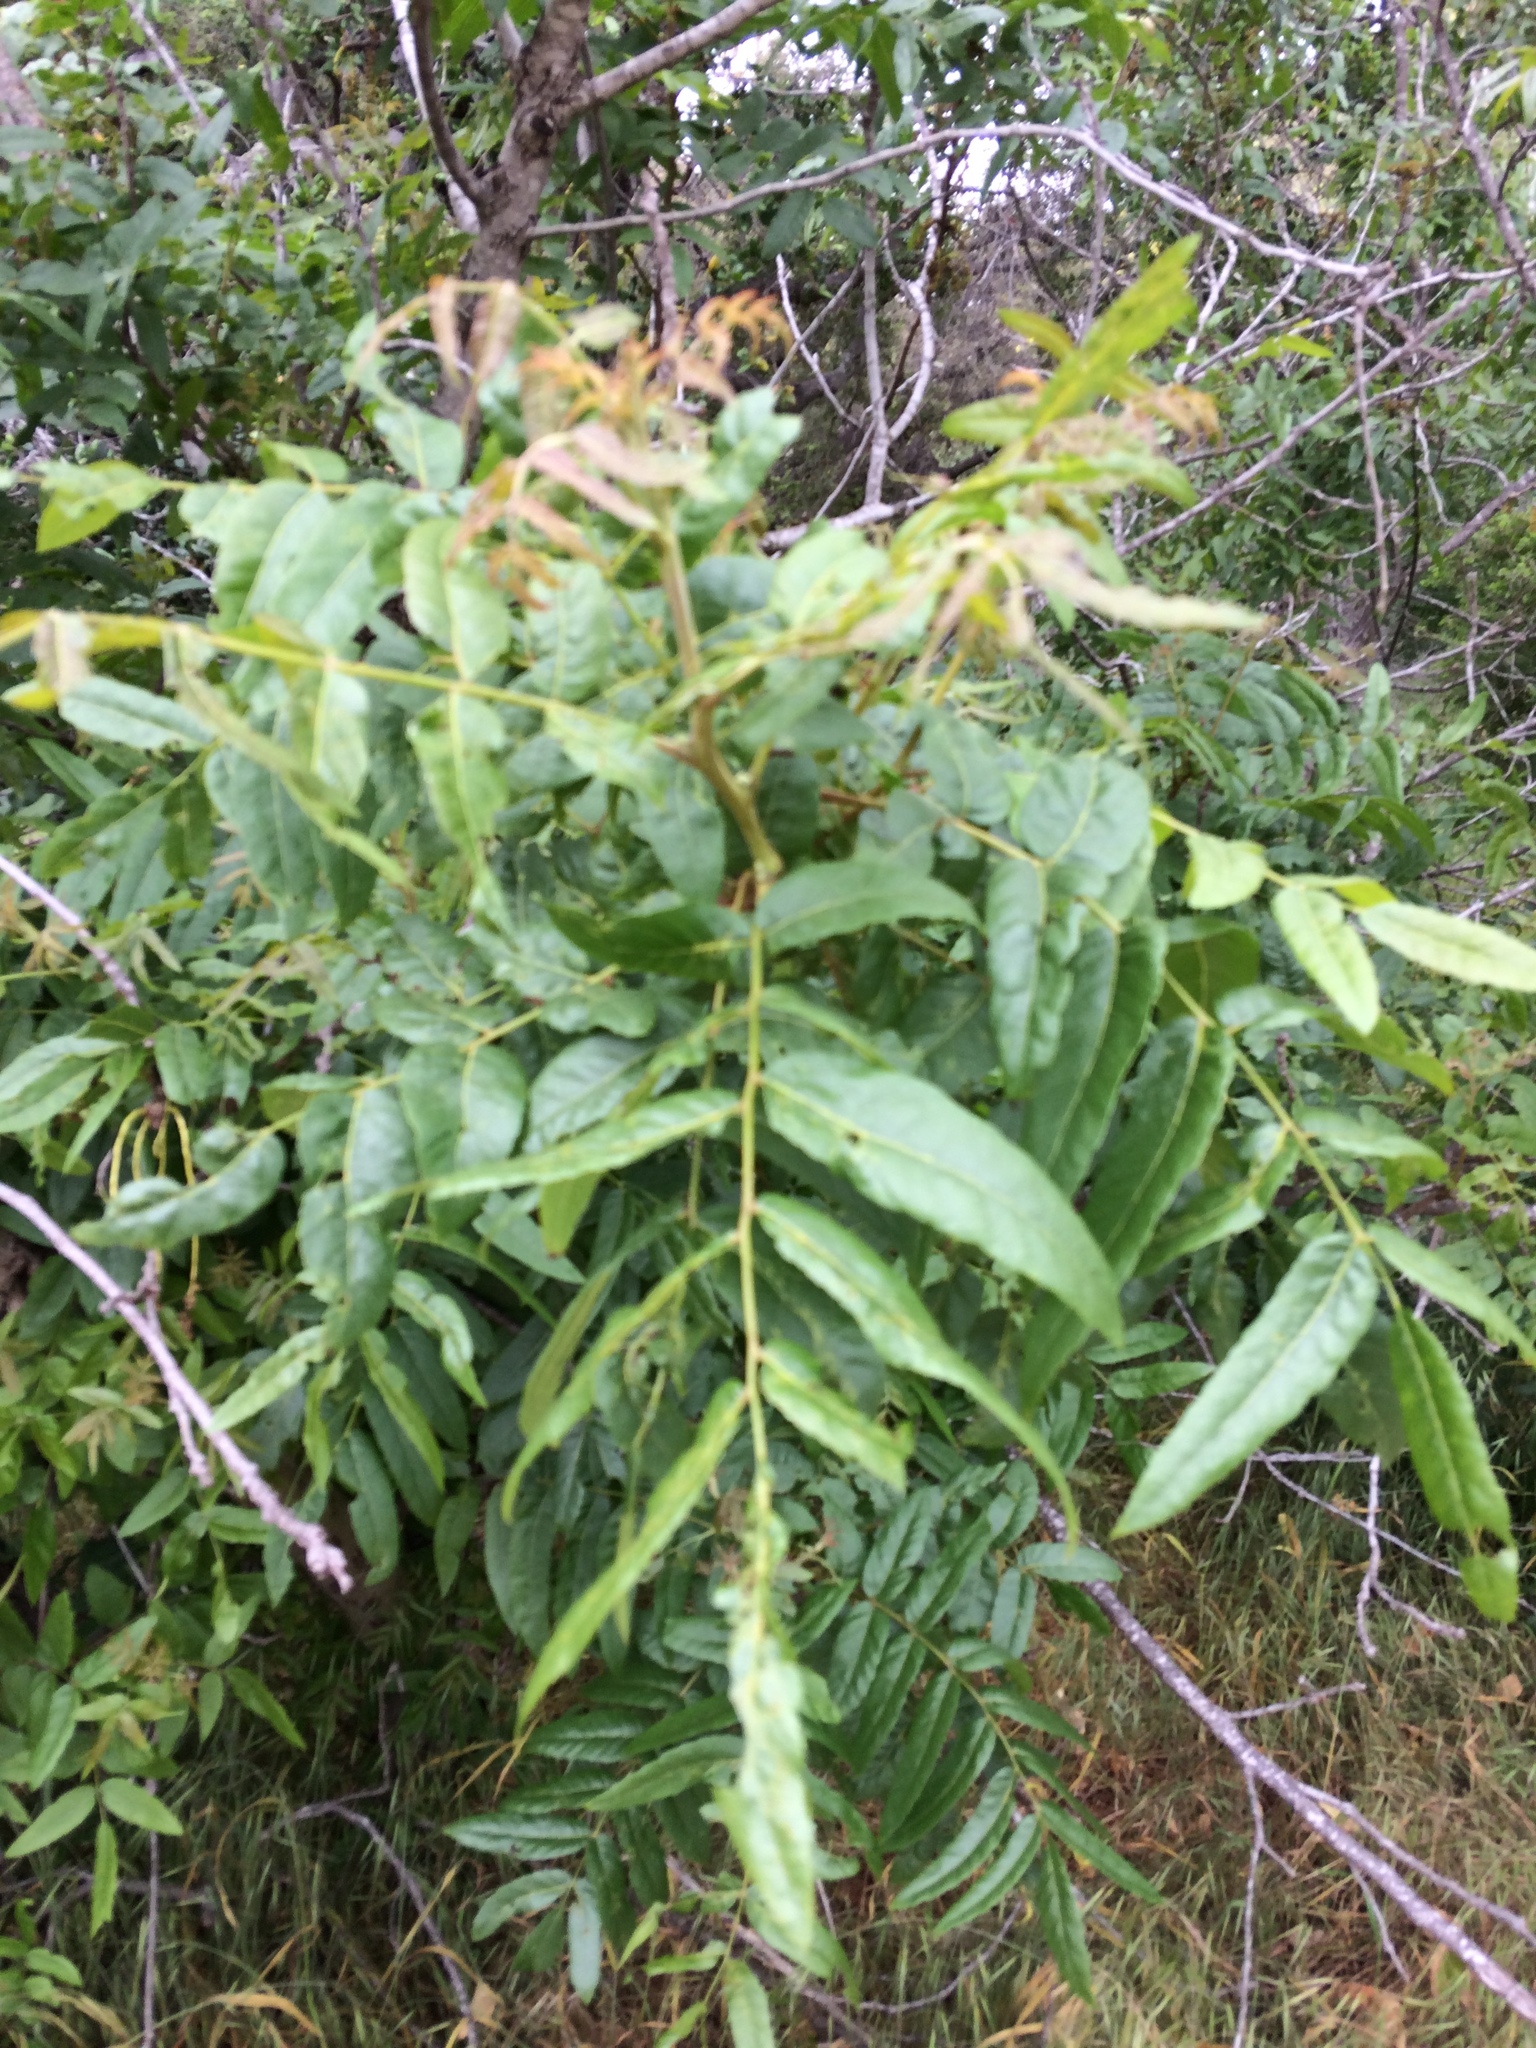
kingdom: Plantae
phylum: Tracheophyta
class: Magnoliopsida
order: Fagales
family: Juglandaceae
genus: Juglans
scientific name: Juglans californica
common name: Southern california black walnut
